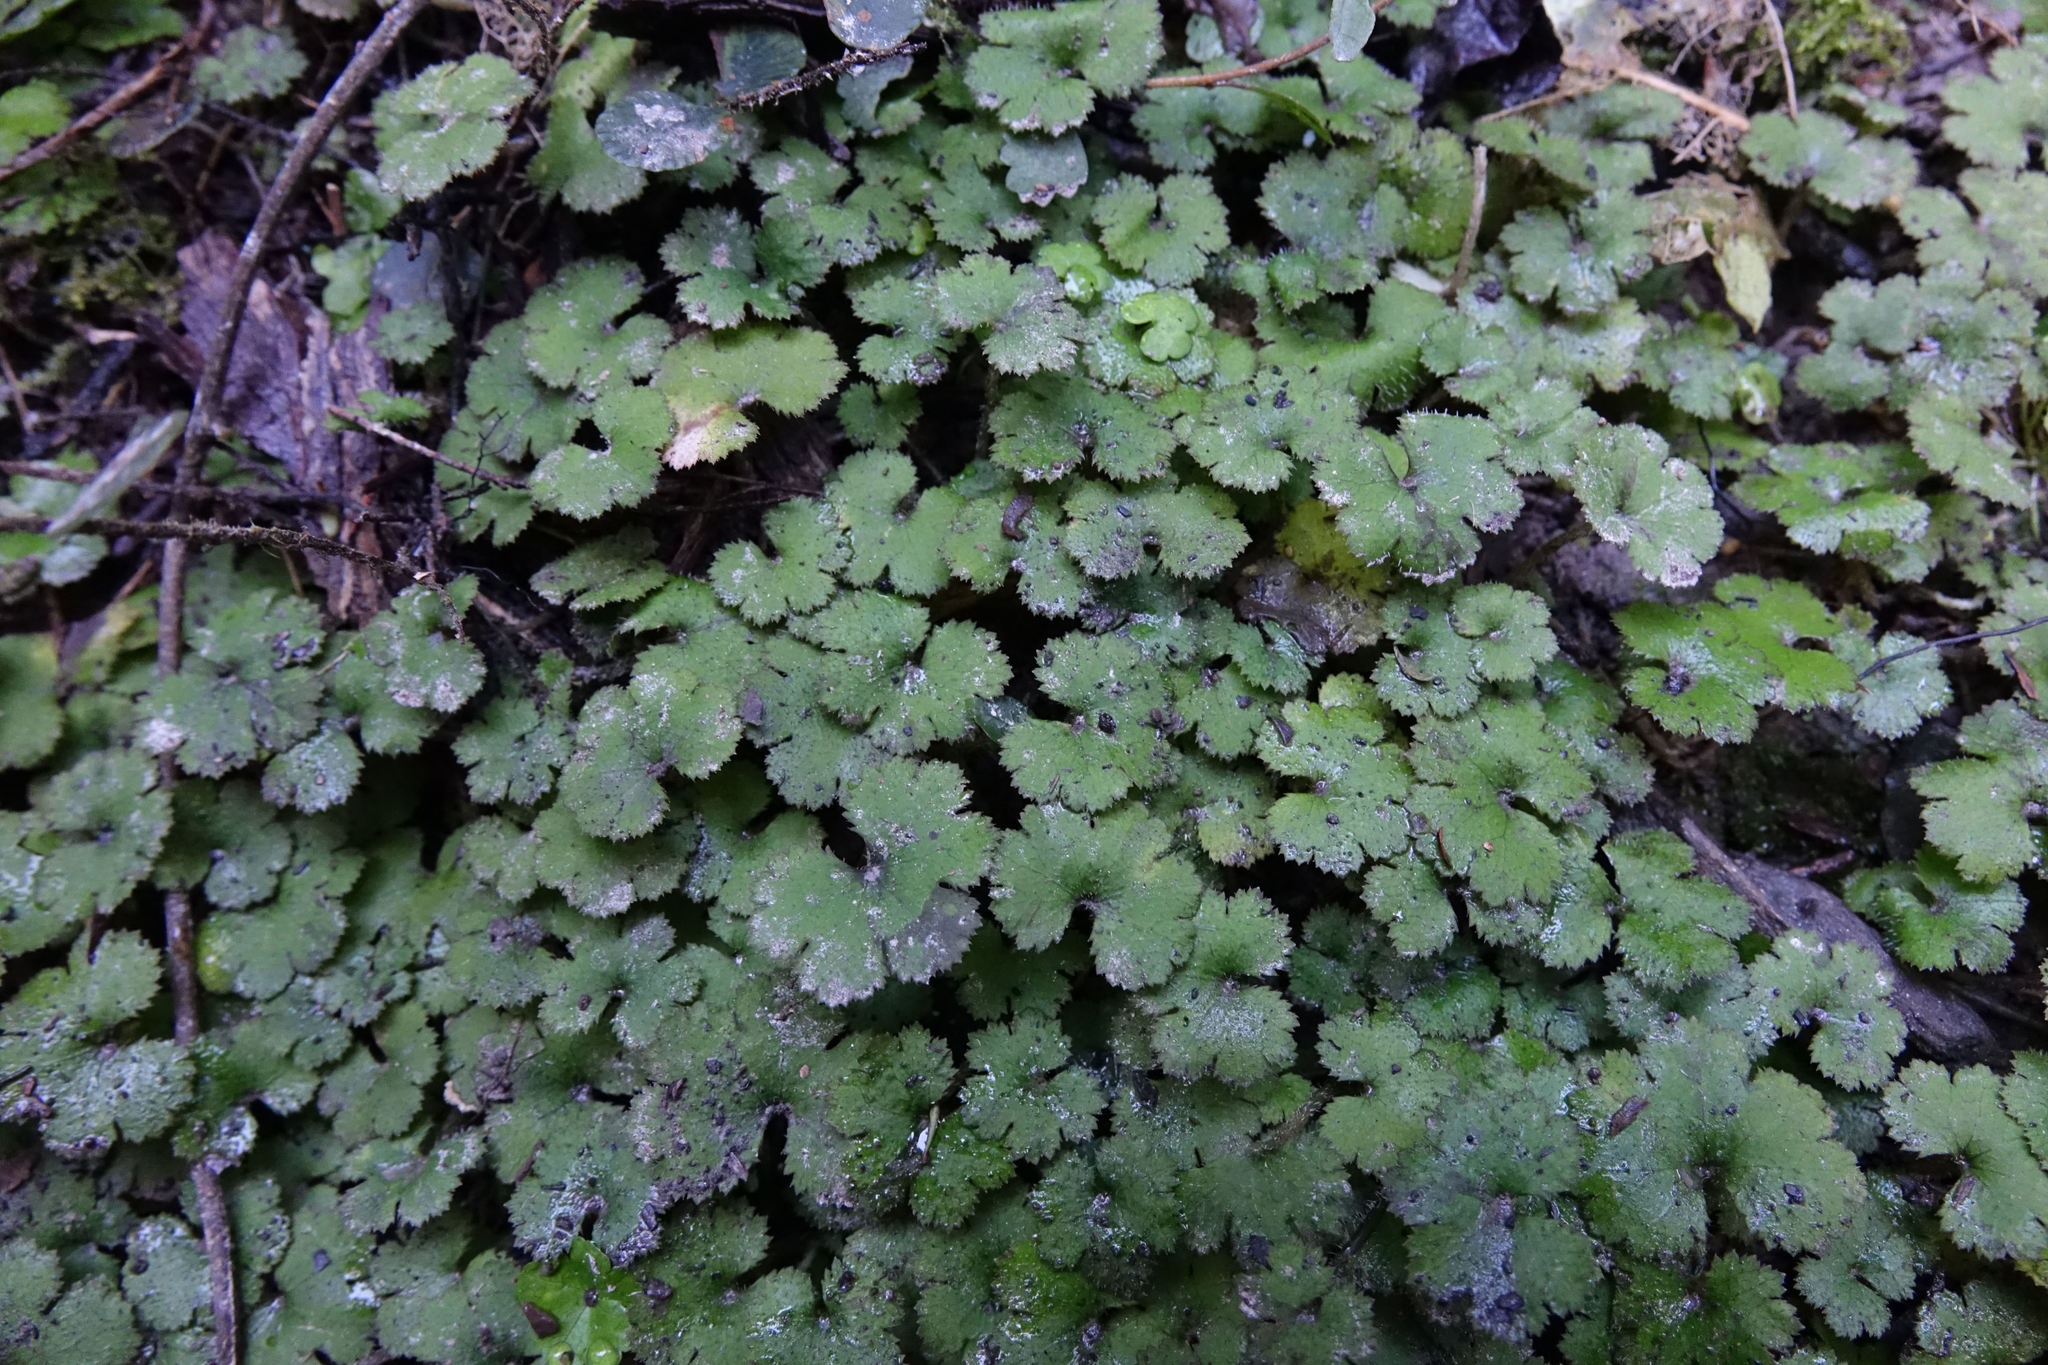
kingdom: Plantae
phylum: Tracheophyta
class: Magnoliopsida
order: Apiales
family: Araliaceae
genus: Hydrocotyle
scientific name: Hydrocotyle elongata
